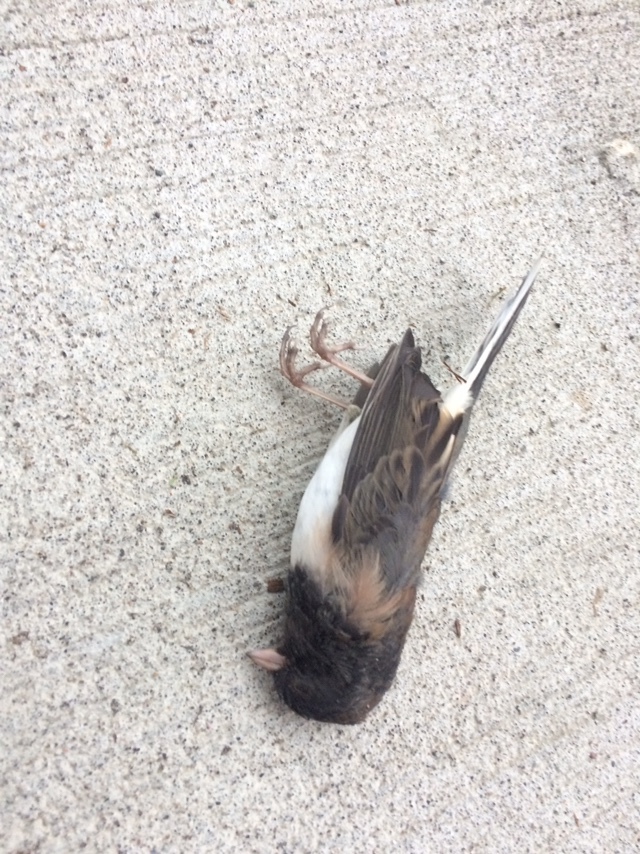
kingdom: Animalia
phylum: Chordata
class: Aves
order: Passeriformes
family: Passerellidae
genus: Junco
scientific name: Junco hyemalis
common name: Dark-eyed junco
